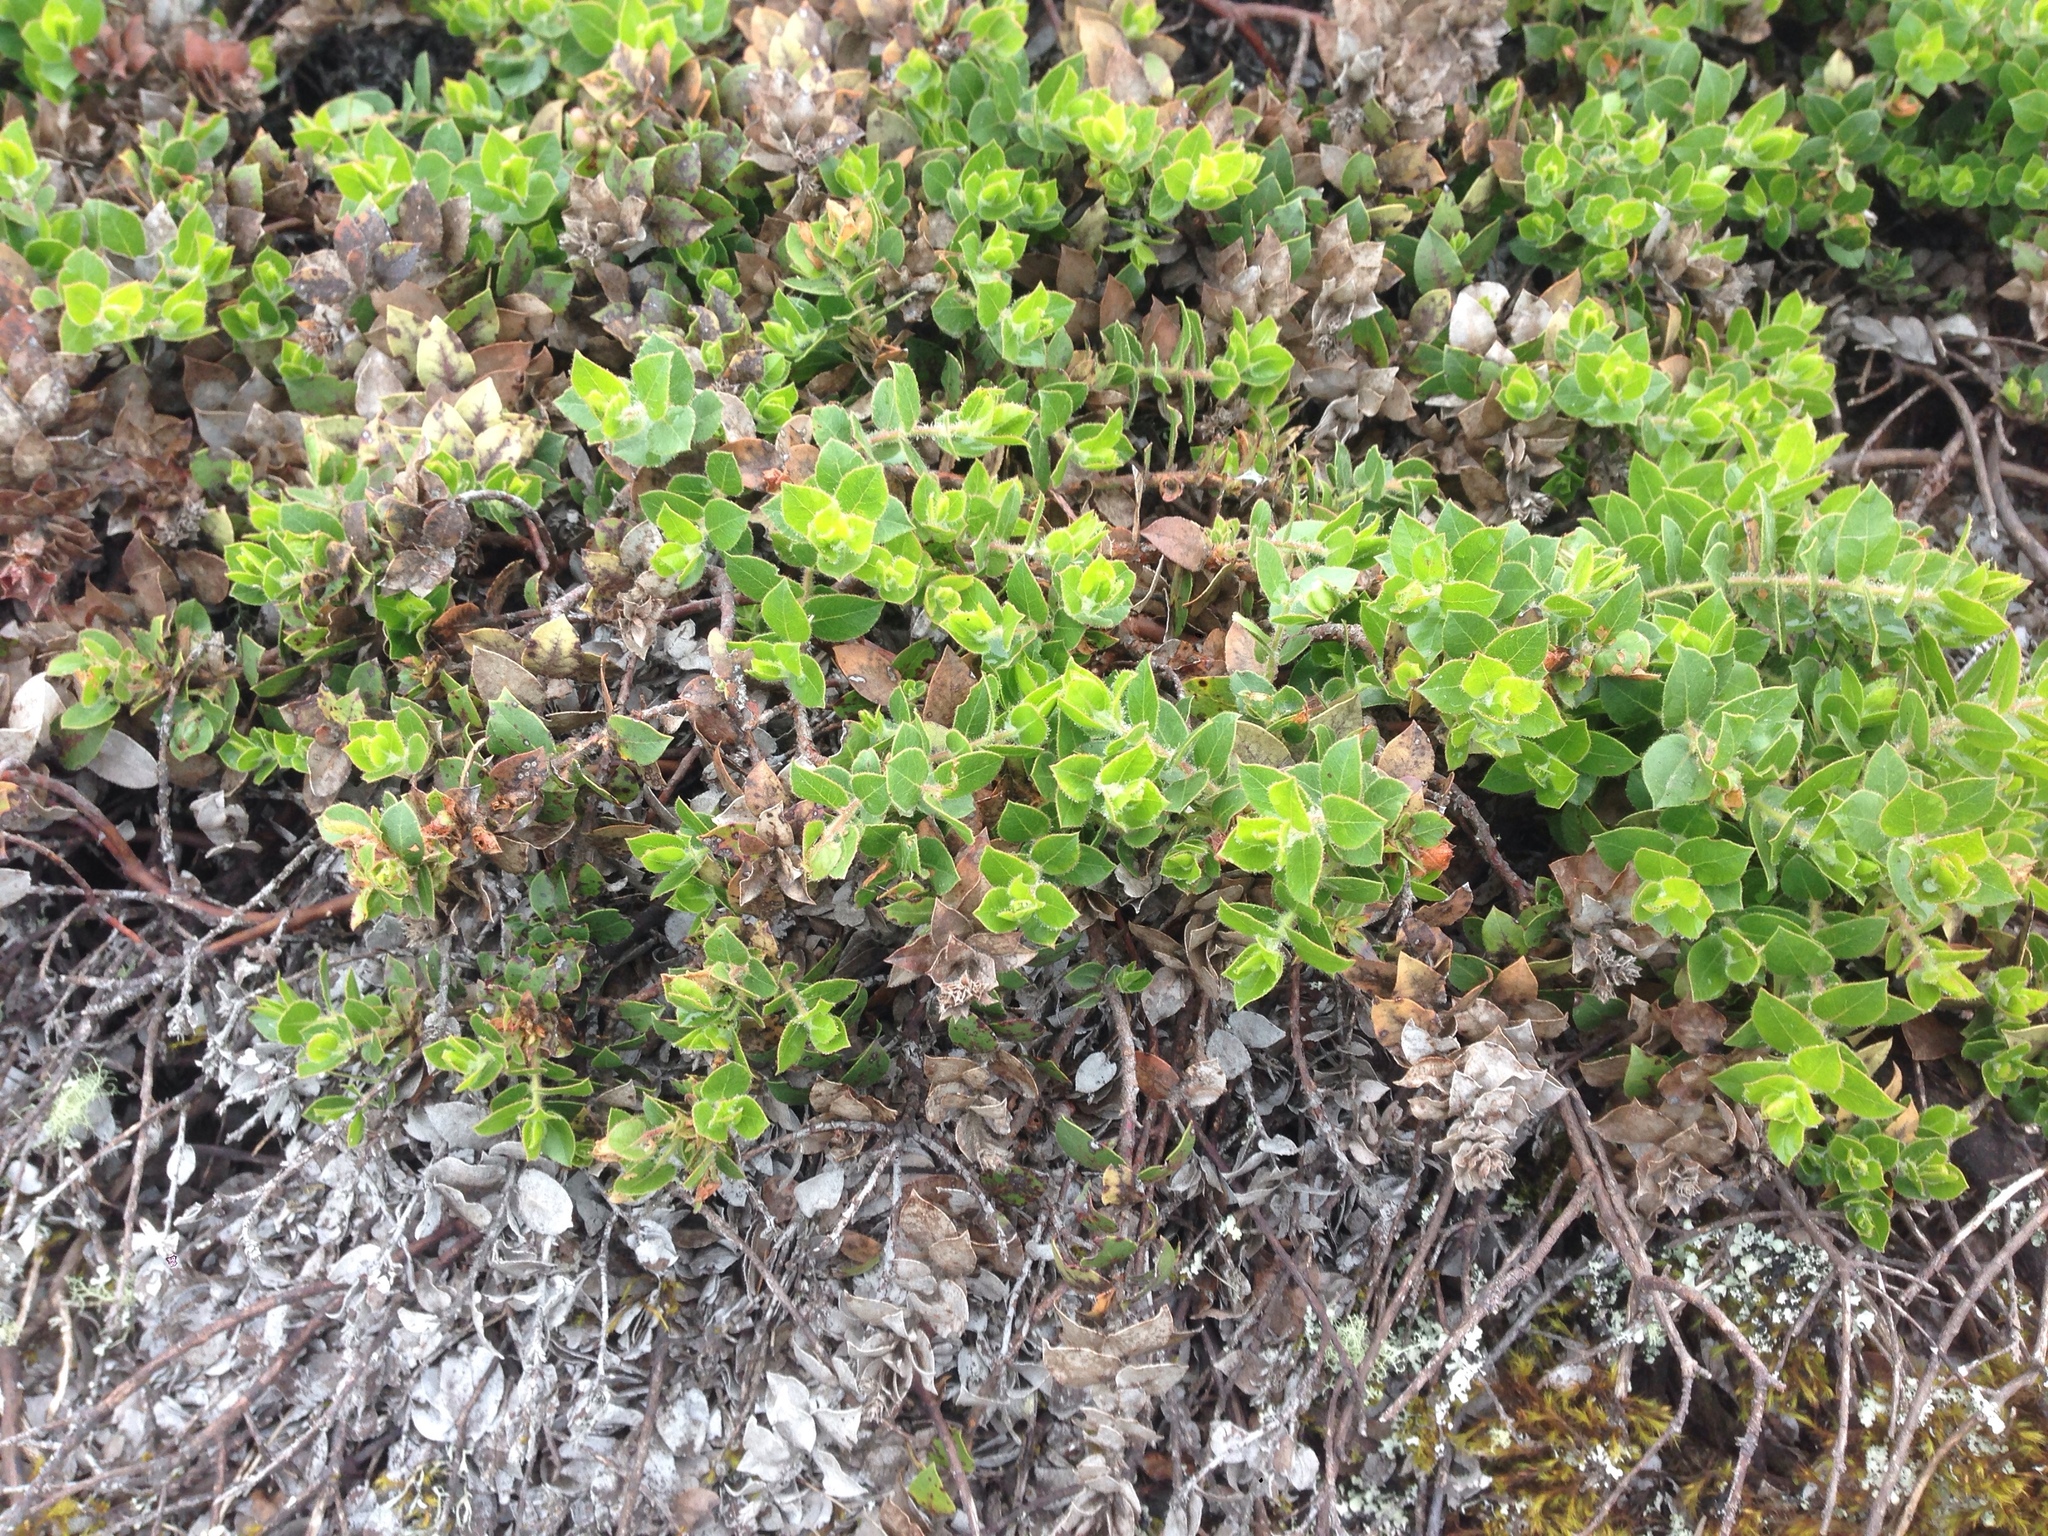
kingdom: Plantae
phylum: Tracheophyta
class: Magnoliopsida
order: Ericales
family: Ericaceae
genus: Arctostaphylos
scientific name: Arctostaphylos imbricata
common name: San bruno mountain manzanita
